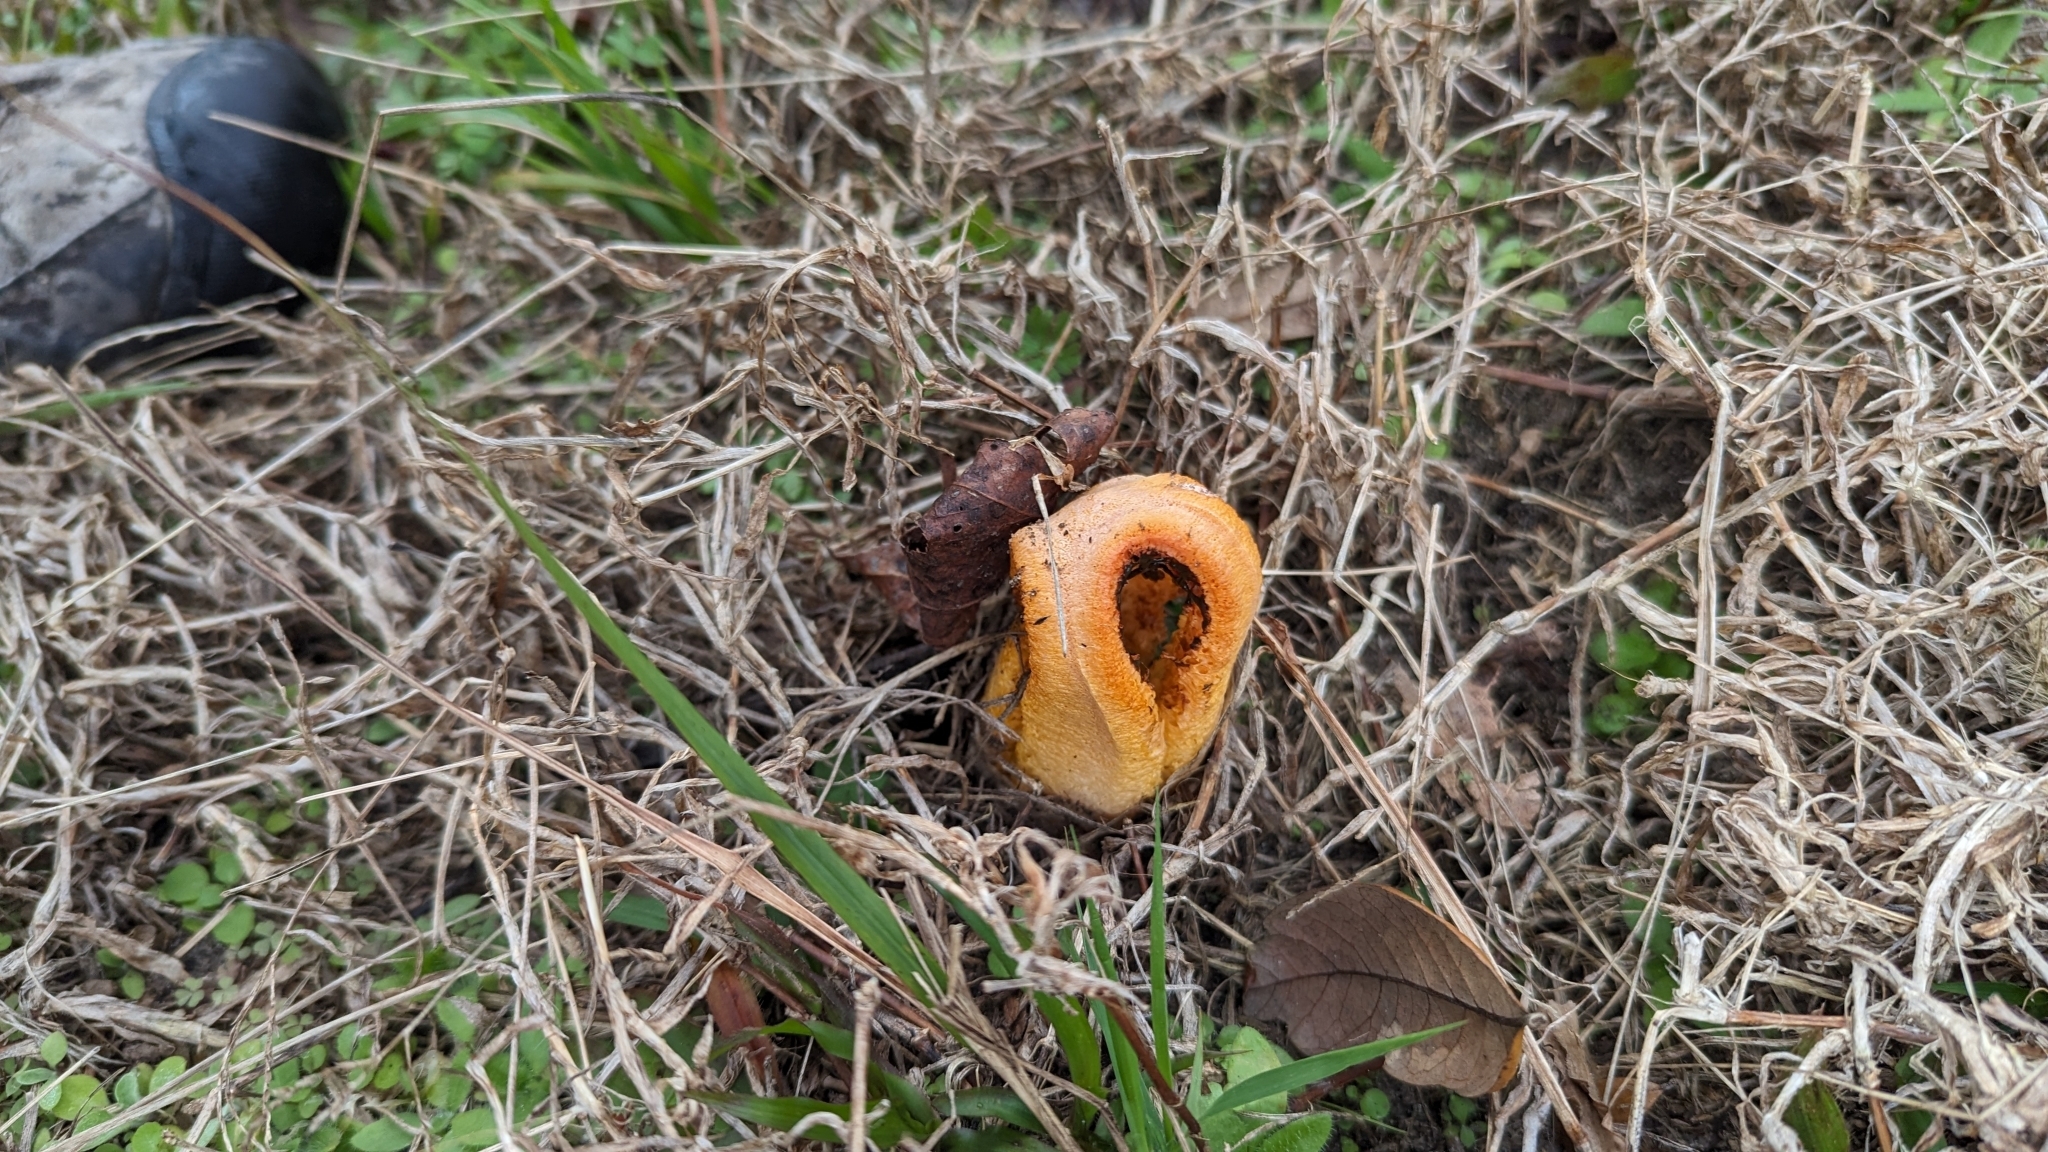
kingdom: Fungi
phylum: Basidiomycota
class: Agaricomycetes
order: Phallales
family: Phallaceae
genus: Clathrus
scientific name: Clathrus columnatus
